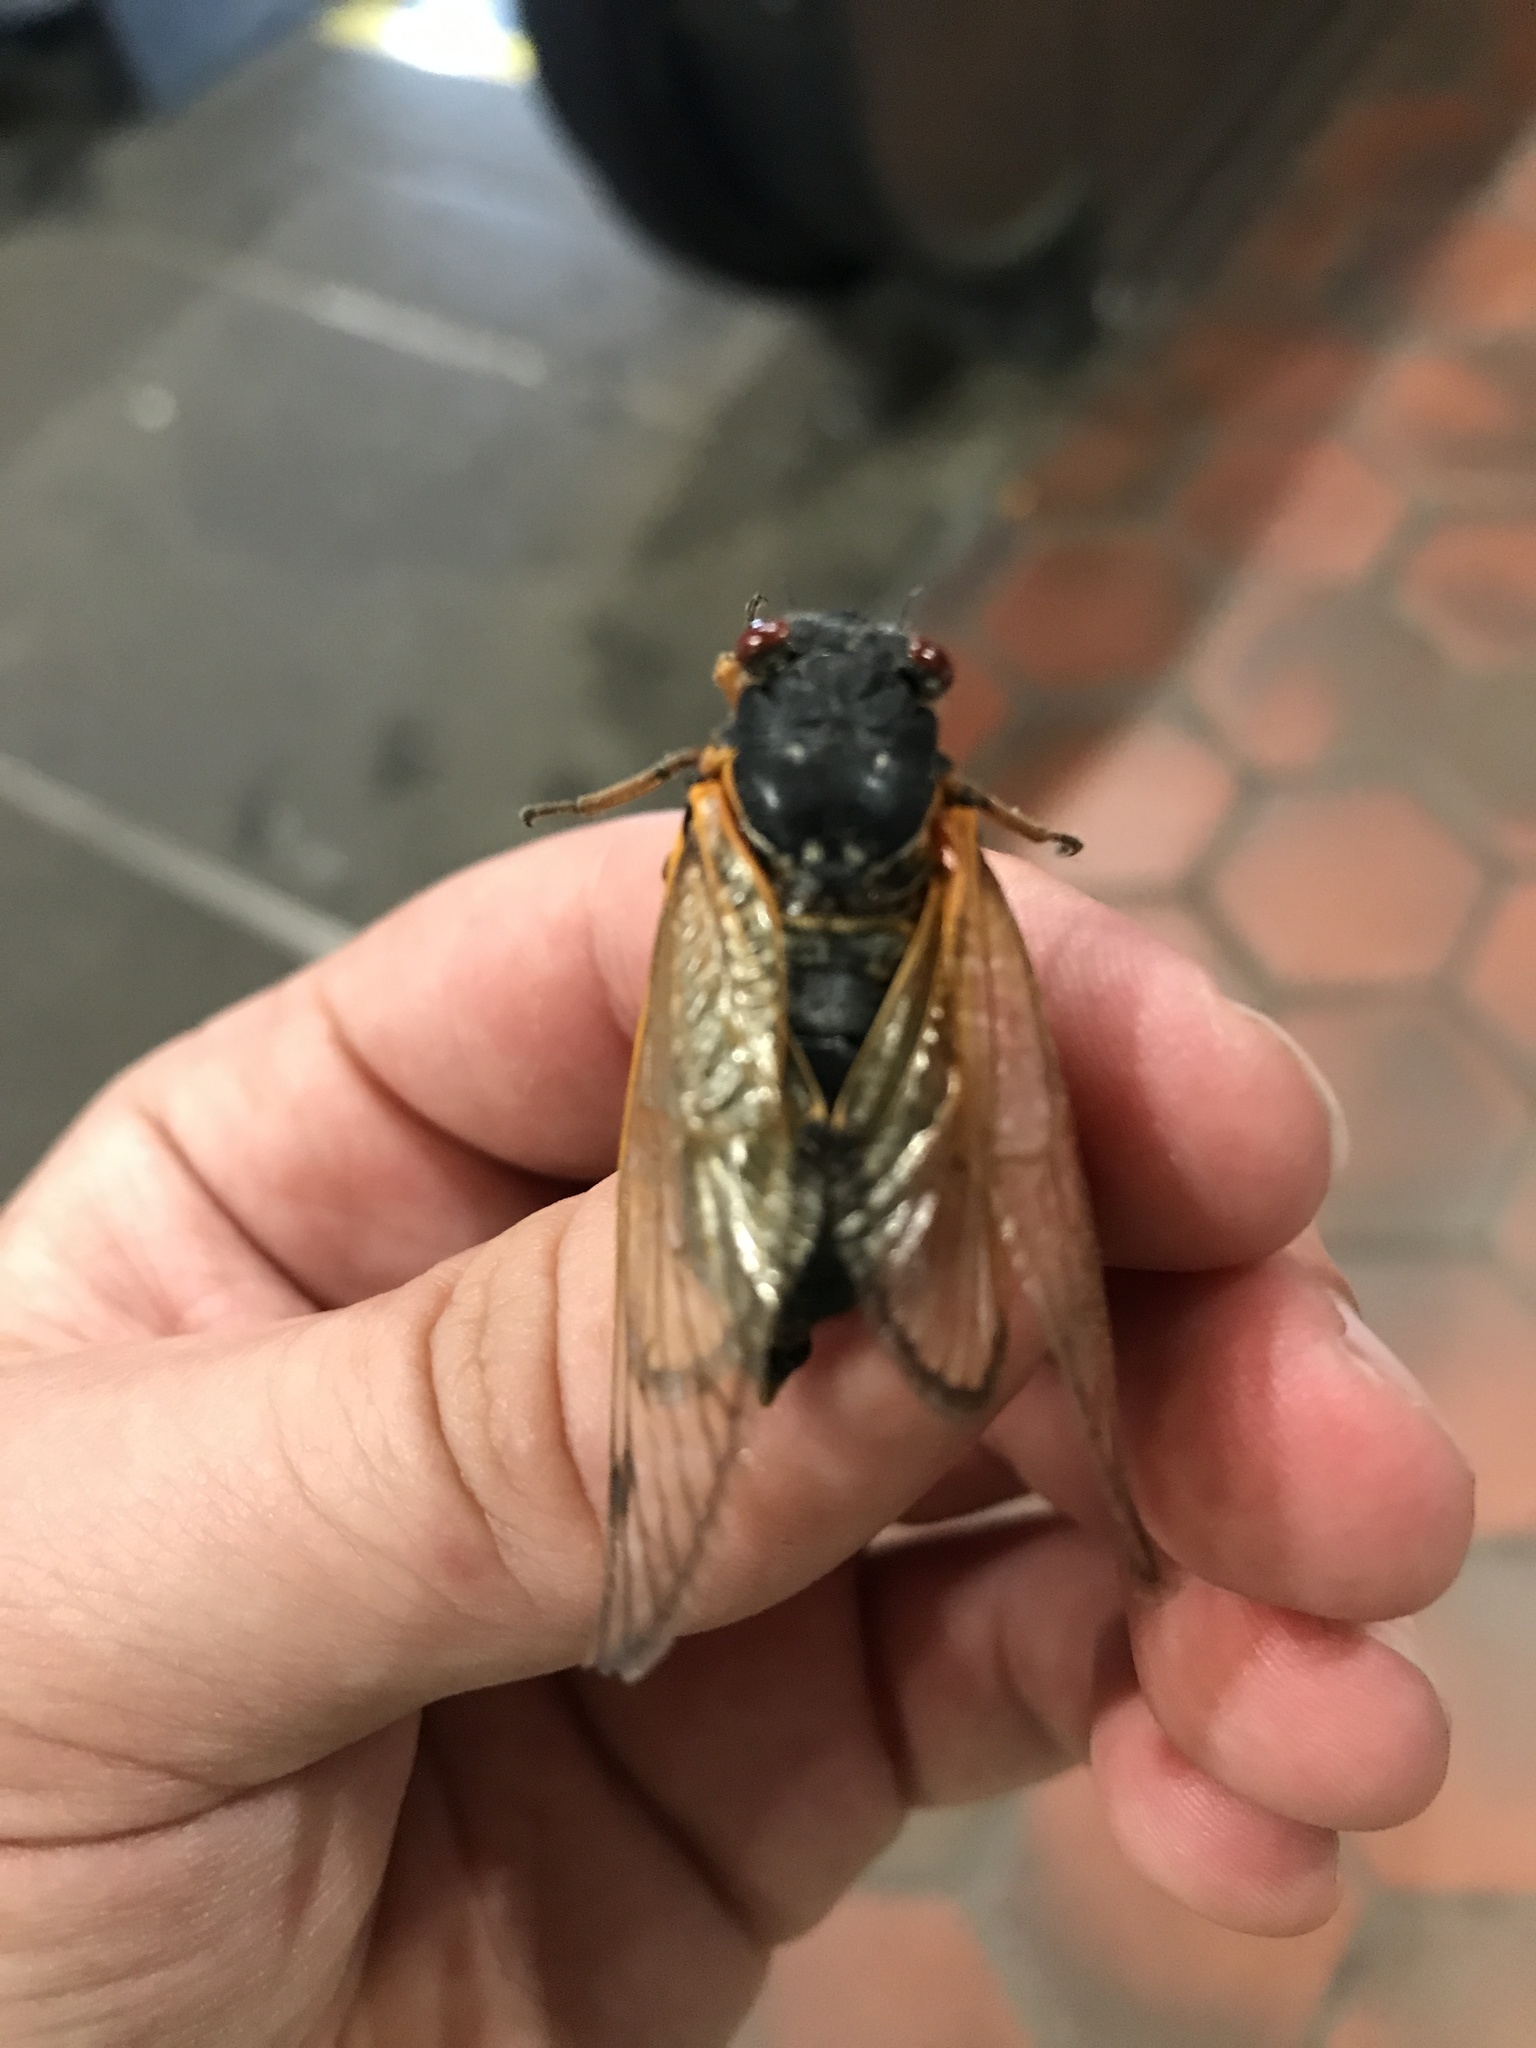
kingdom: Animalia
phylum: Arthropoda
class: Insecta
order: Hemiptera
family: Cicadidae
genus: Magicicada
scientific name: Magicicada
